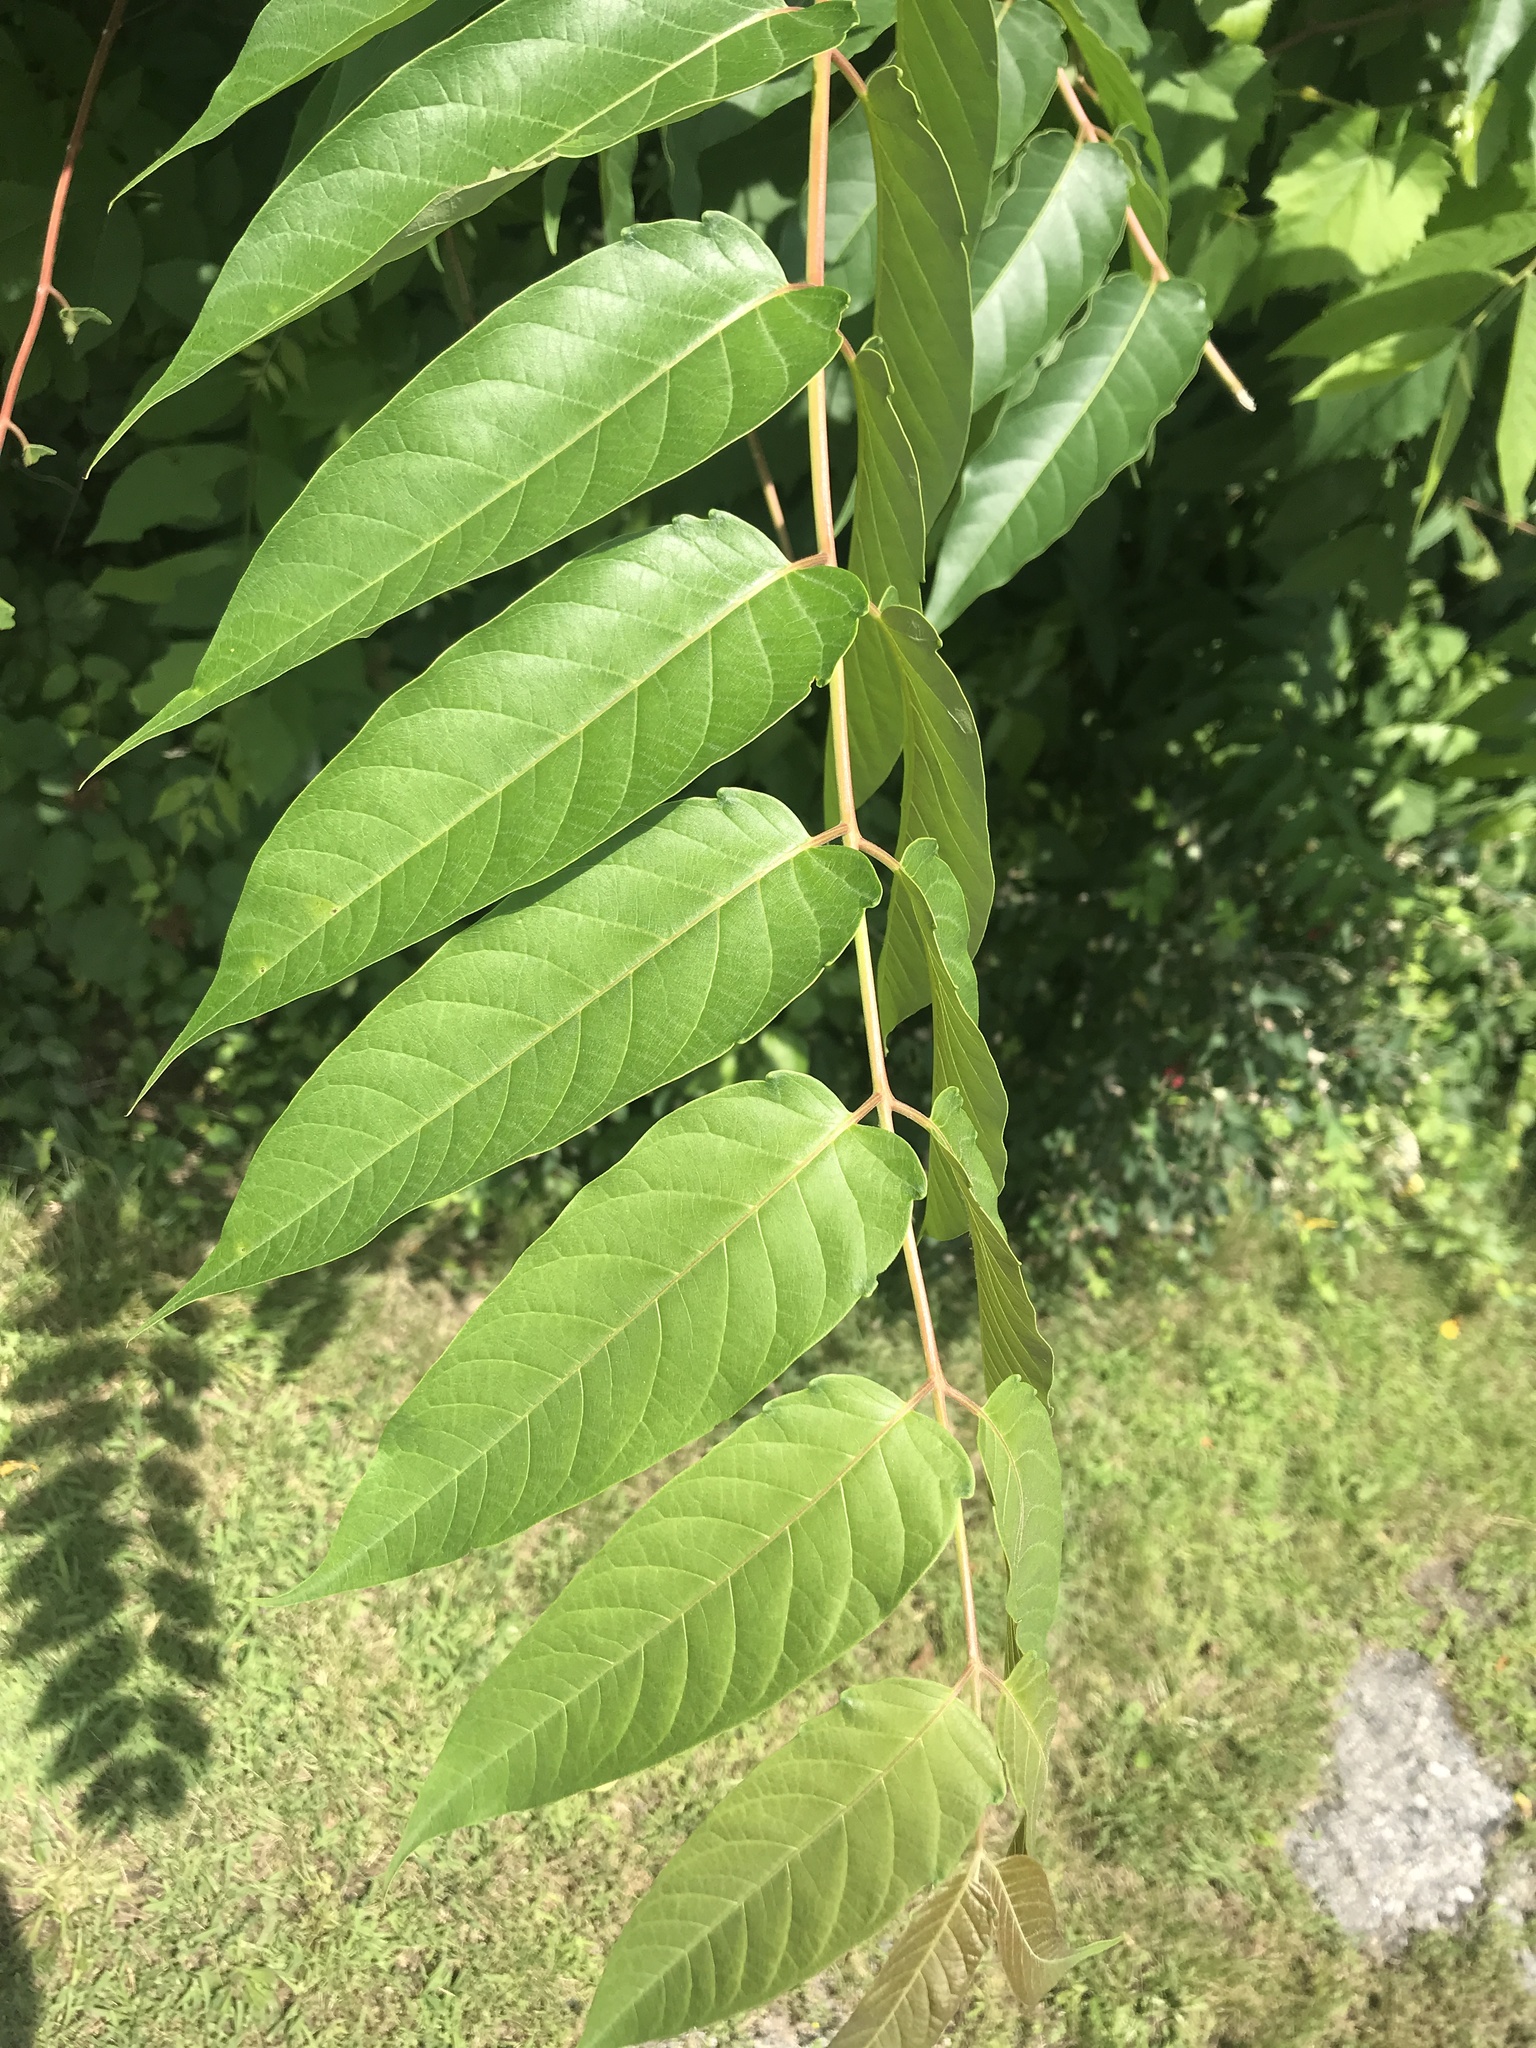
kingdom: Plantae
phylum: Tracheophyta
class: Magnoliopsida
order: Sapindales
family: Simaroubaceae
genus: Ailanthus
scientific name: Ailanthus altissima
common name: Tree-of-heaven
